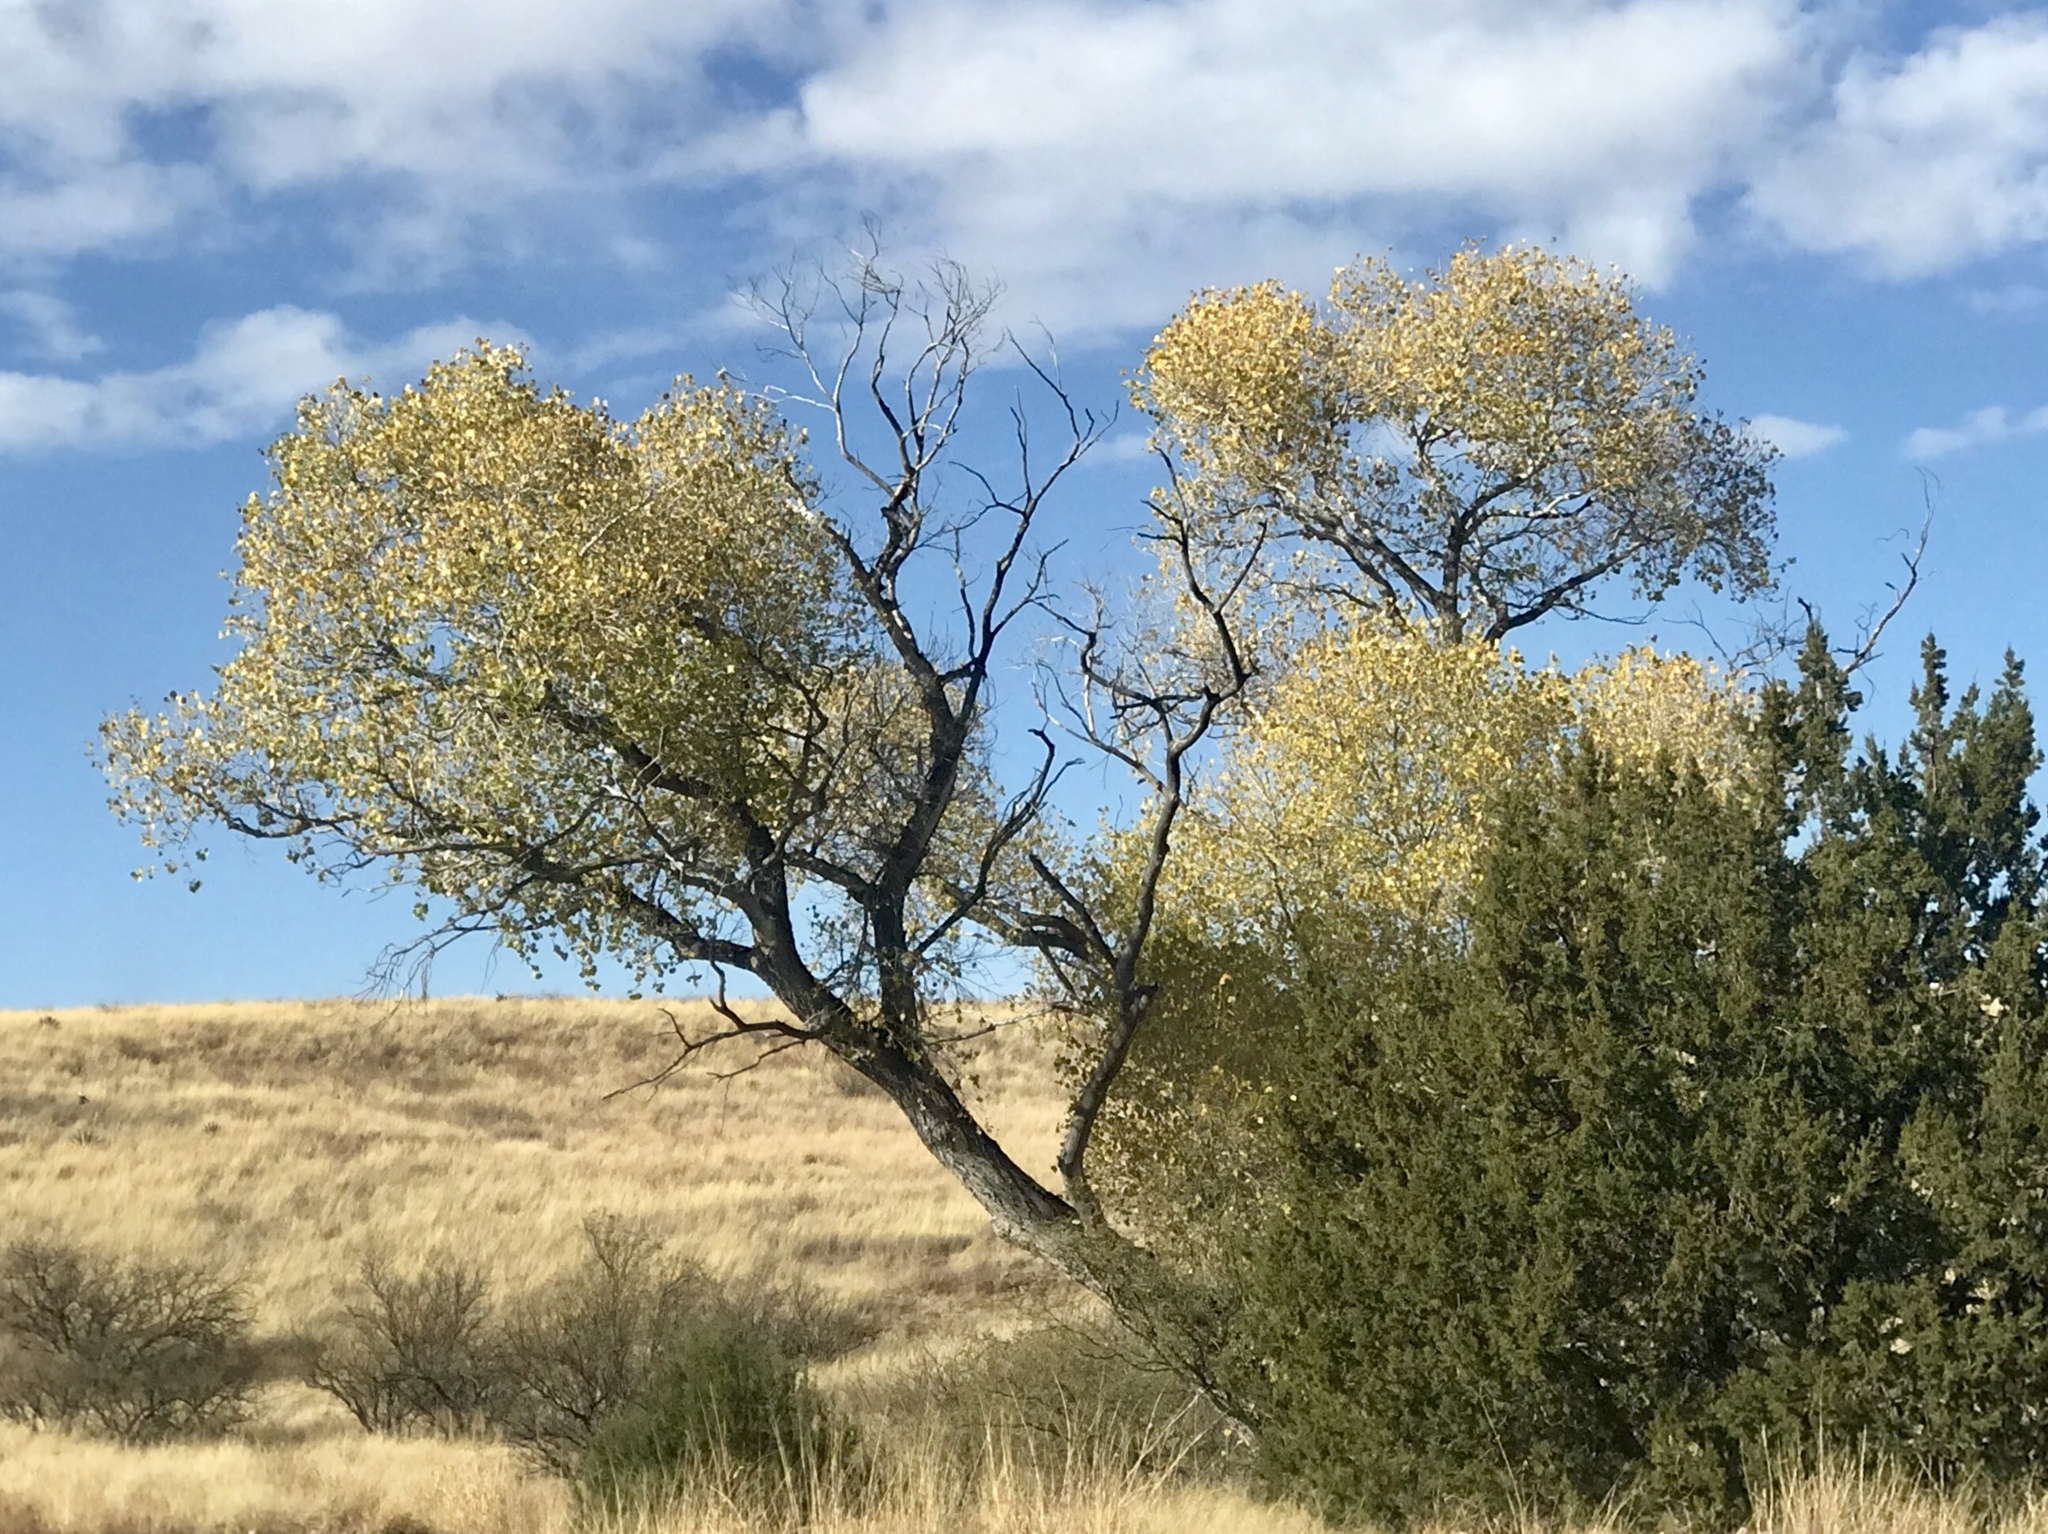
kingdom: Plantae
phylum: Tracheophyta
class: Magnoliopsida
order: Malpighiales
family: Salicaceae
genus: Populus
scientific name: Populus fremontii
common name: Fremont's cottonwood
